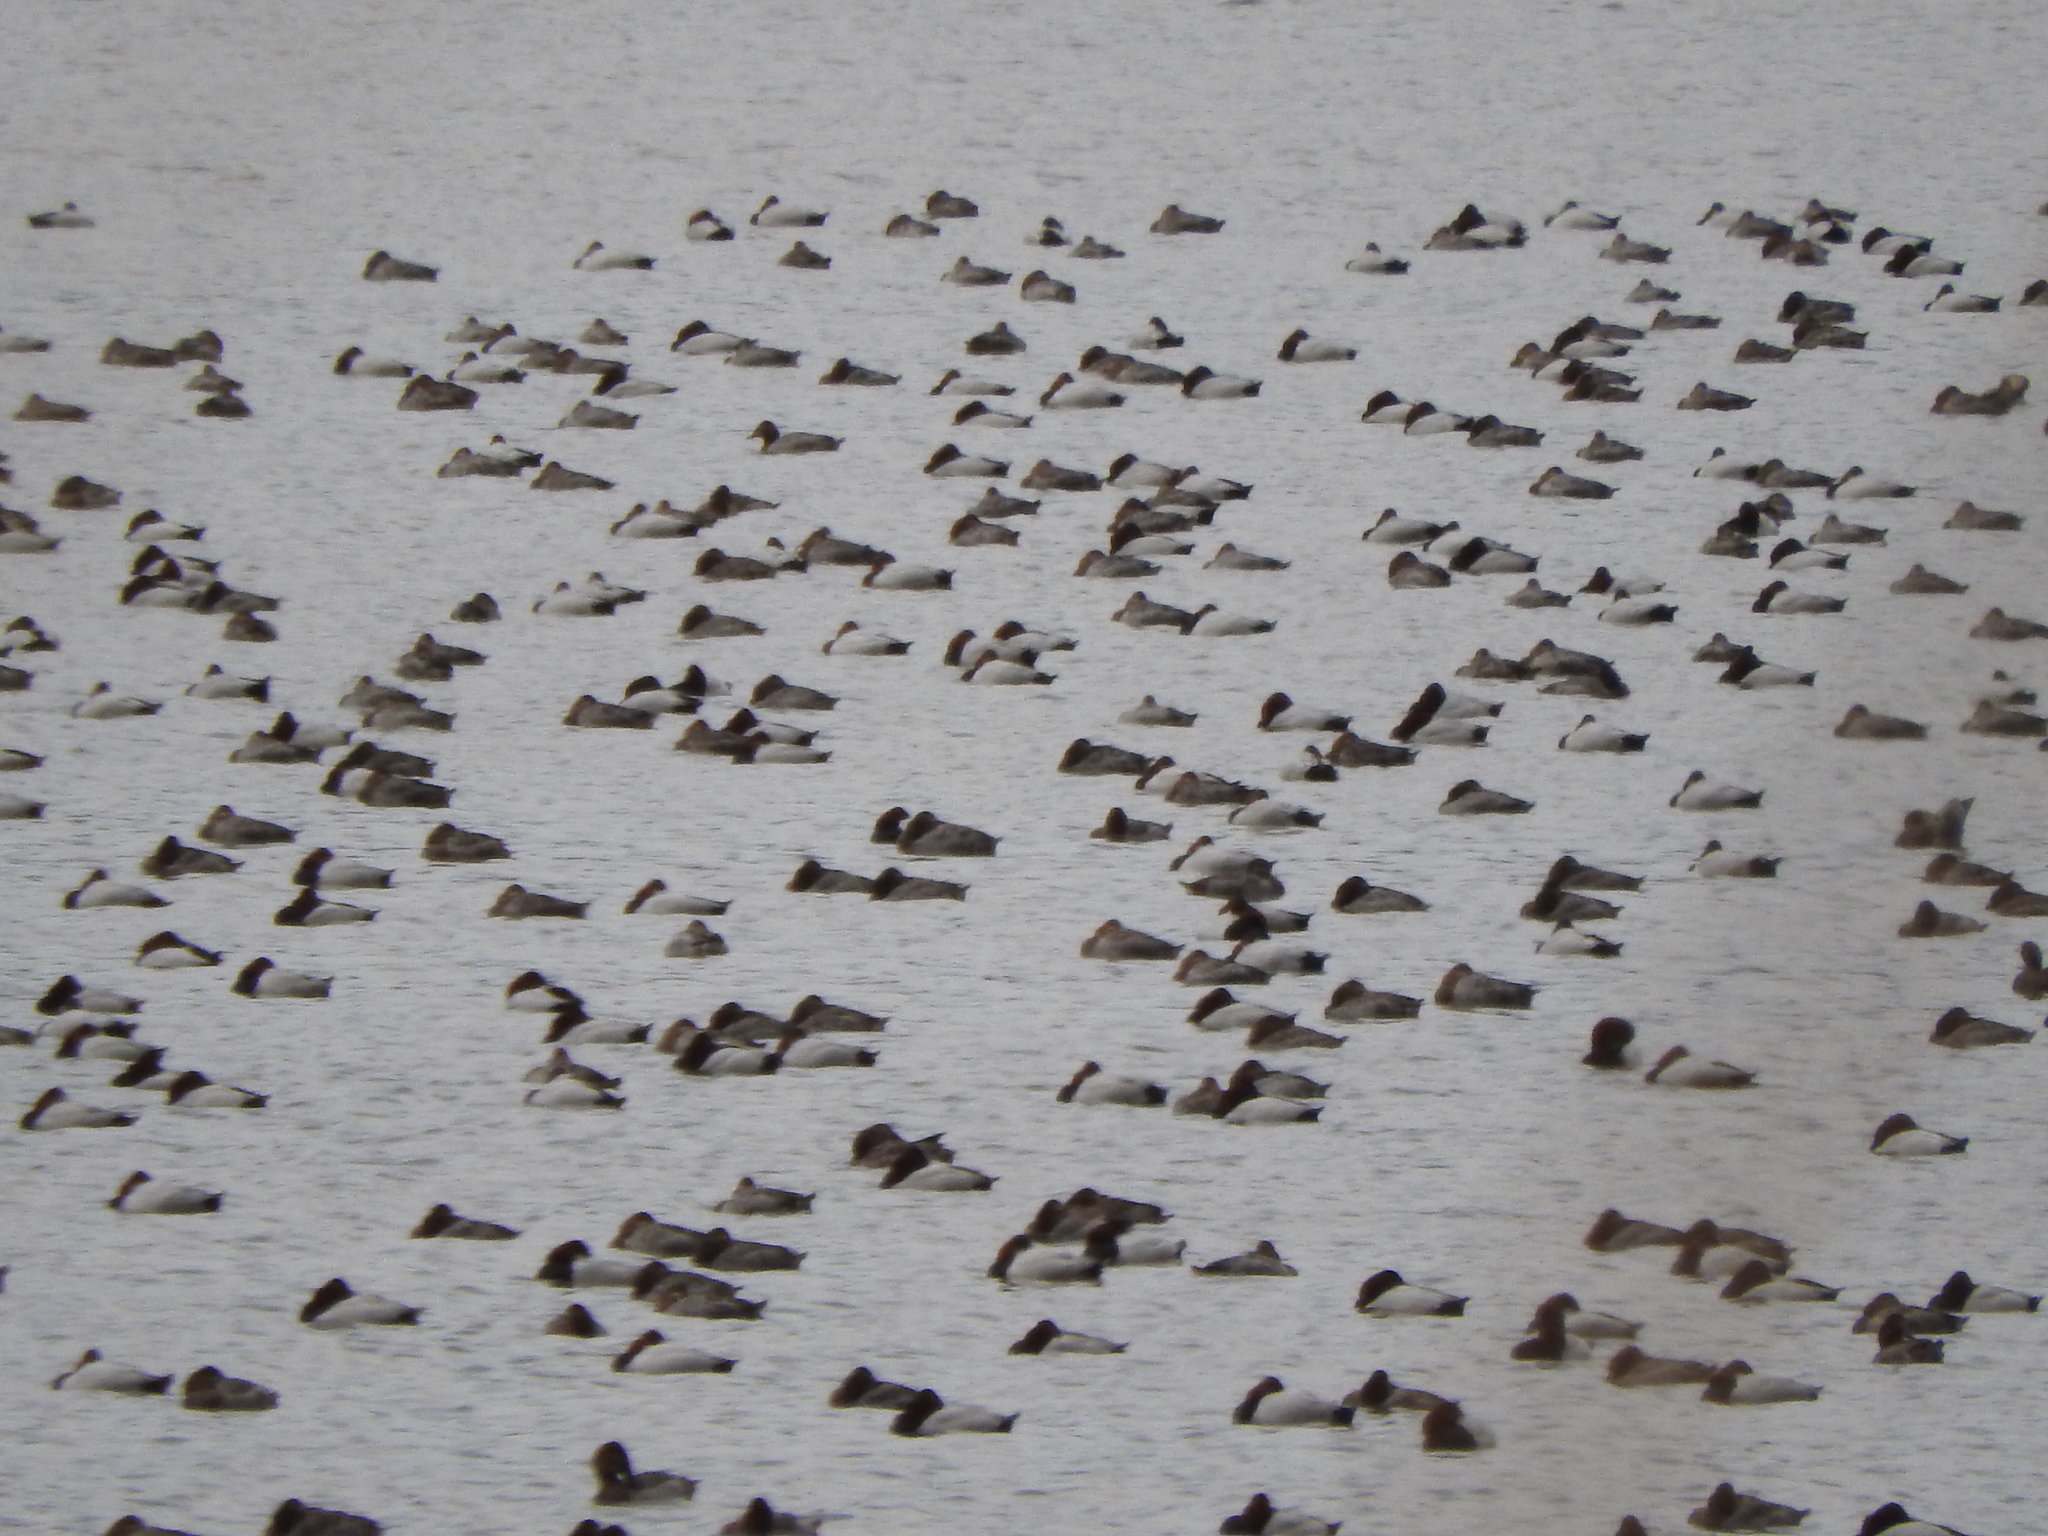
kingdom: Animalia
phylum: Chordata
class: Aves
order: Anseriformes
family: Anatidae
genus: Aythya
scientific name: Aythya valisineria
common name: Canvasback
